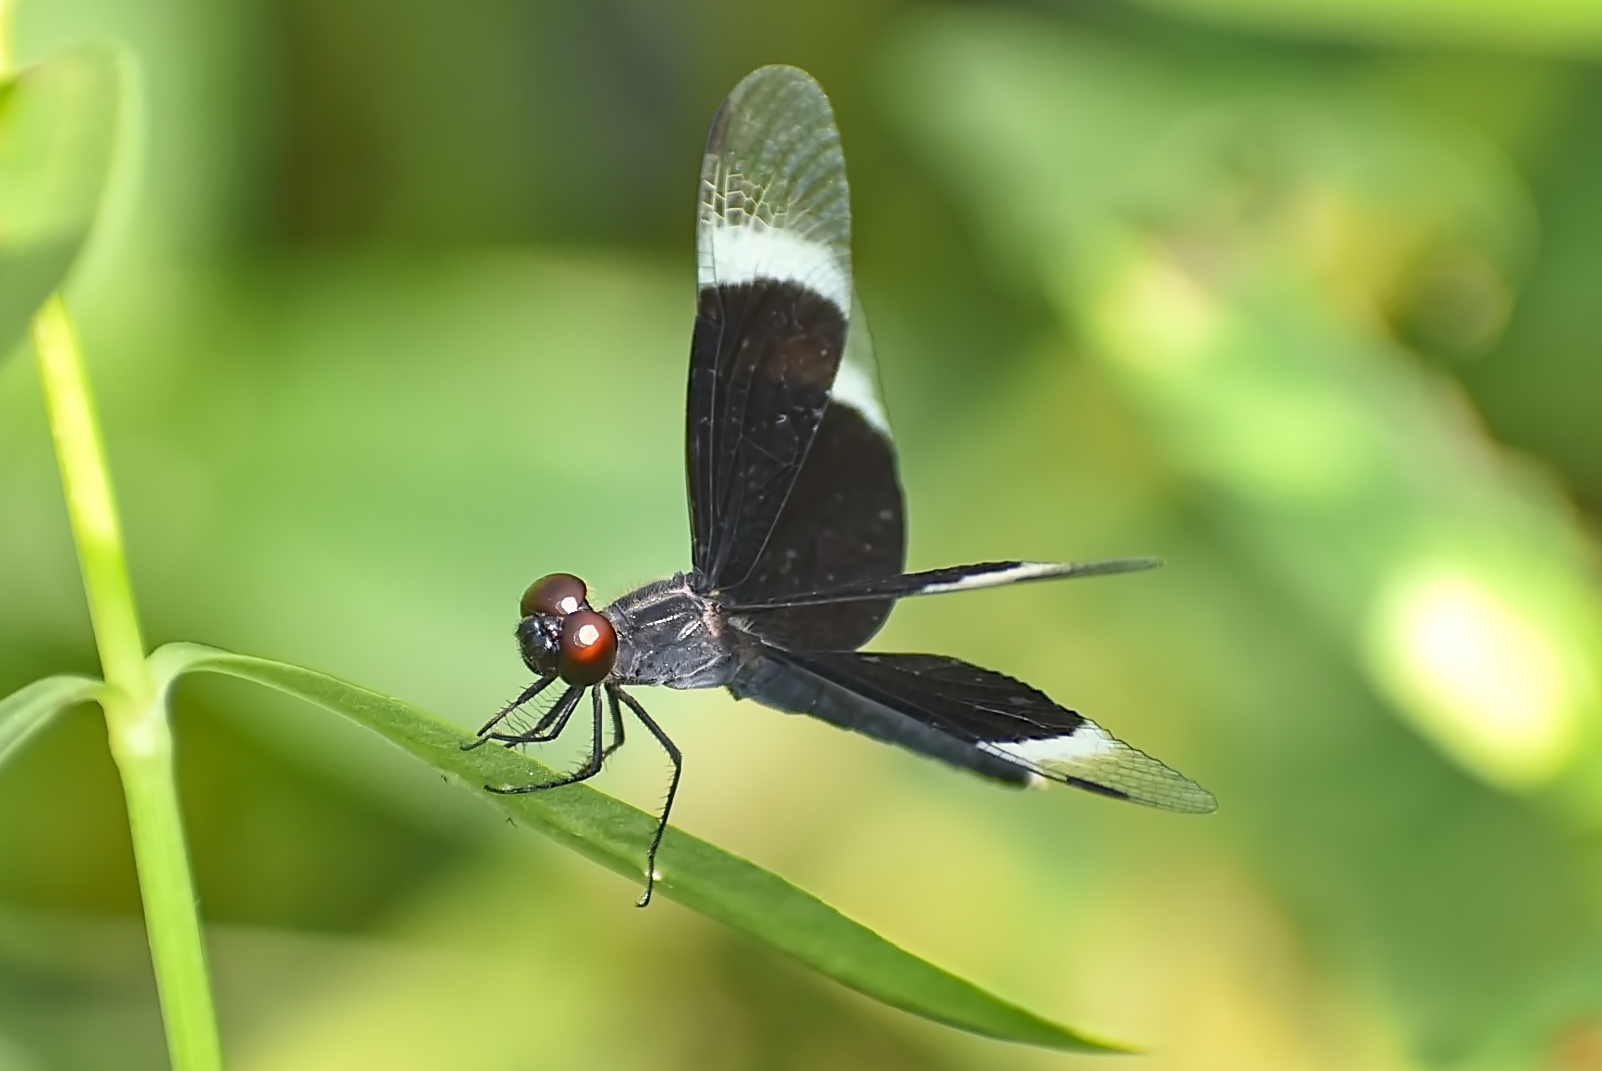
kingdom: Animalia
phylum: Arthropoda
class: Insecta
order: Odonata
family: Libellulidae
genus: Neurothemis
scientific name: Neurothemis tullia
